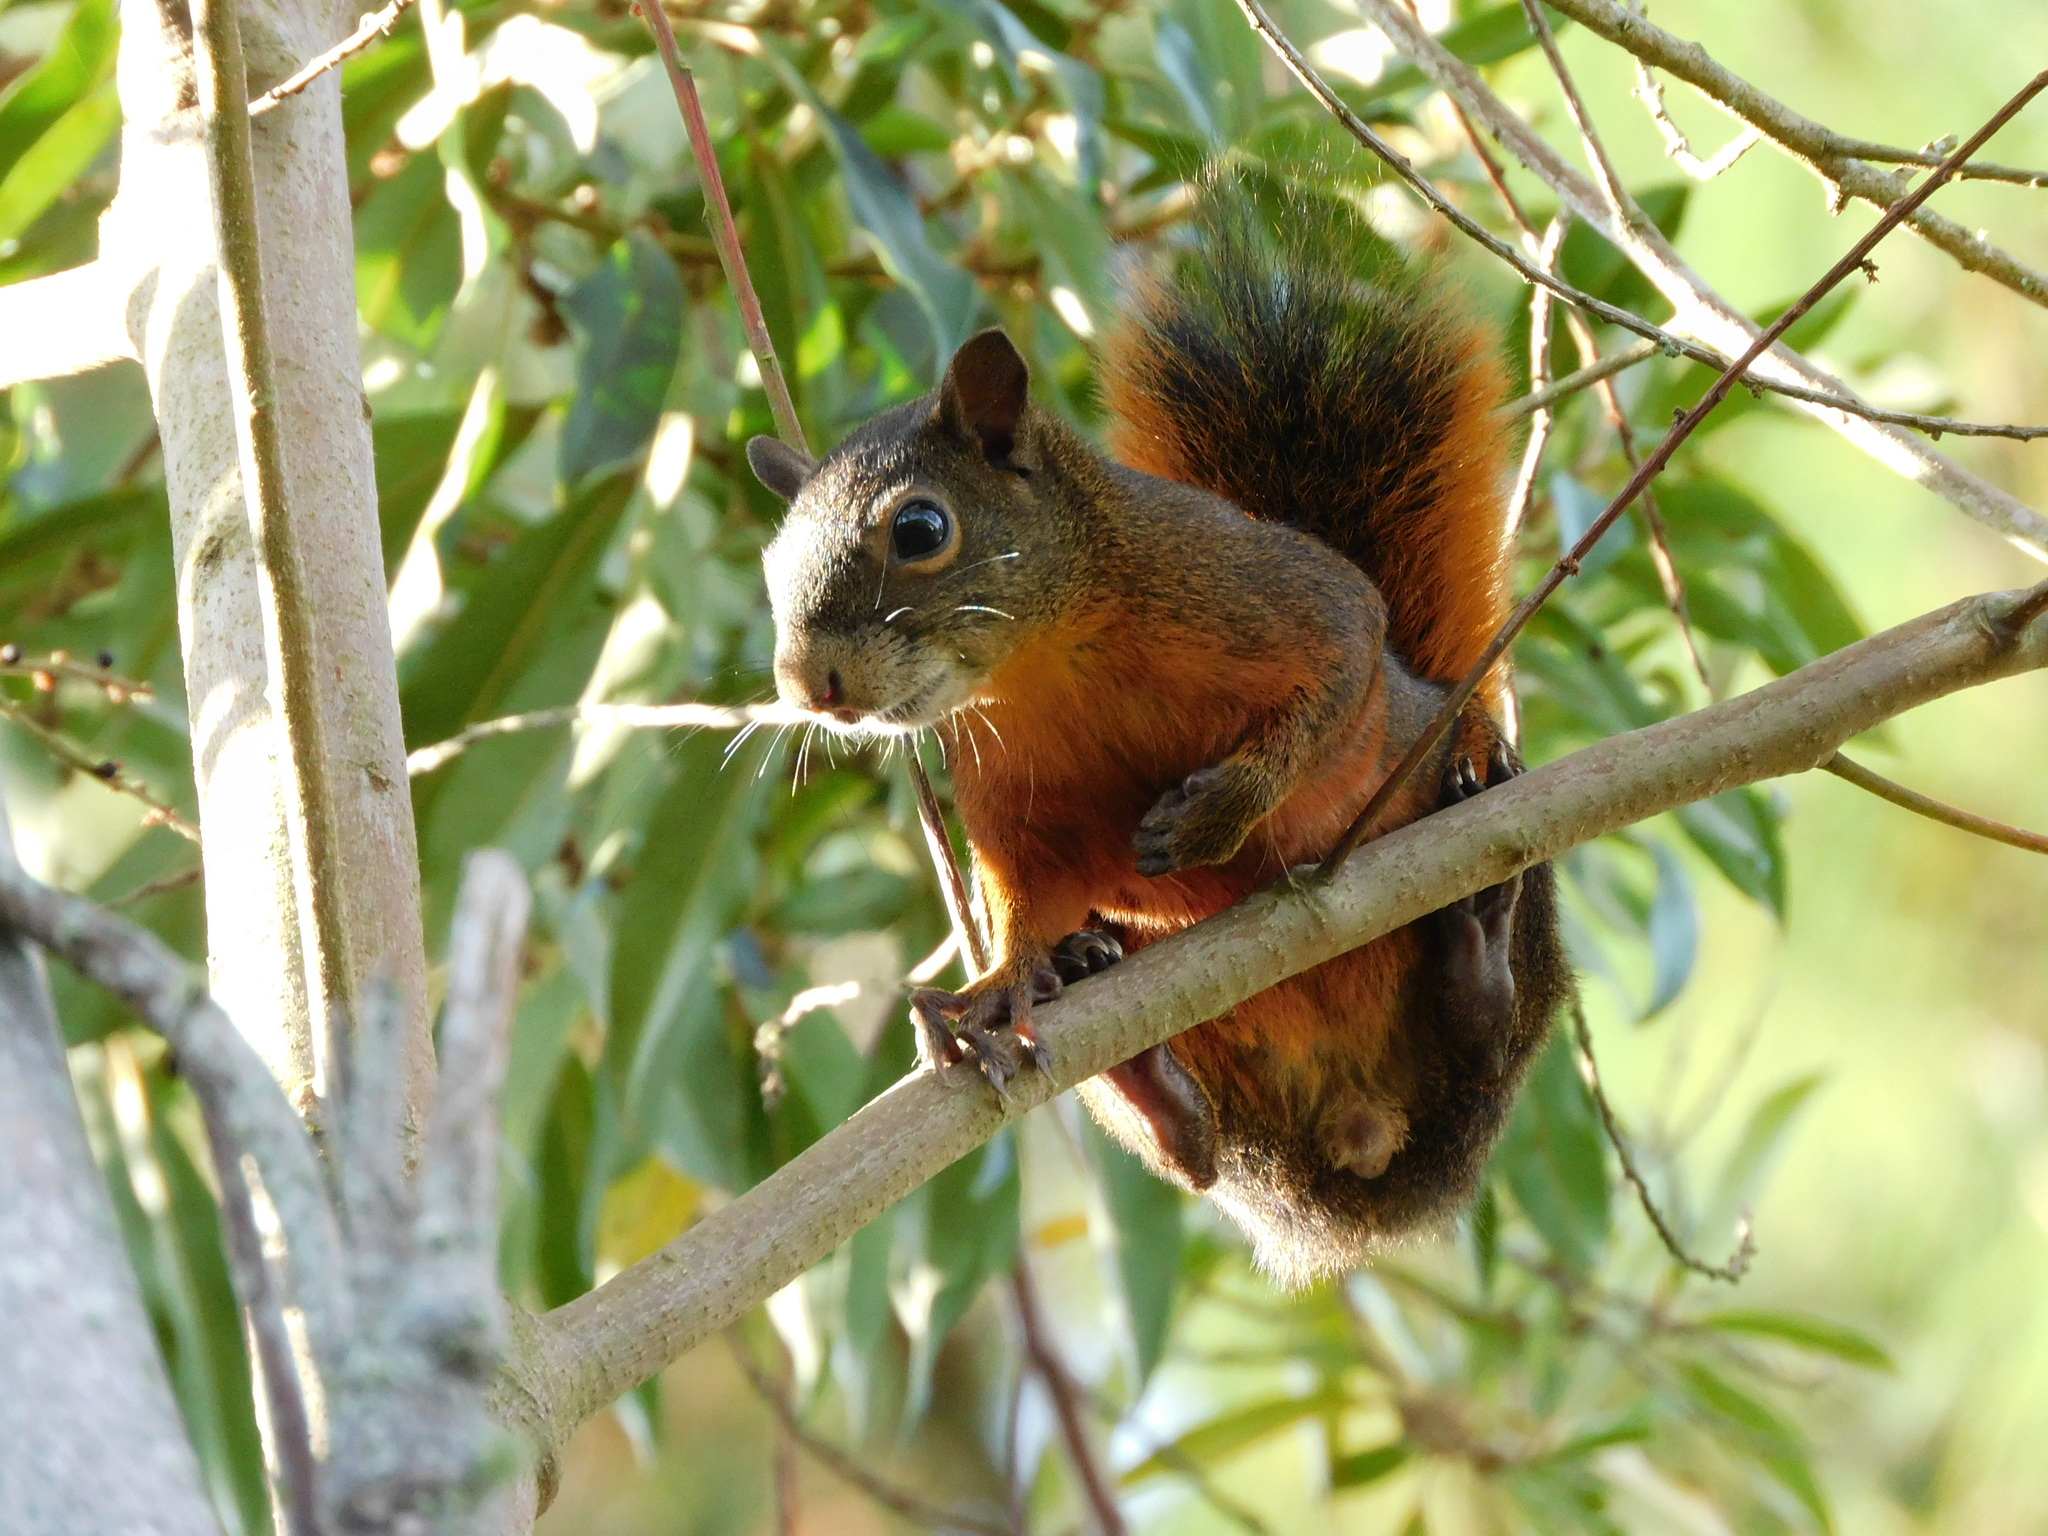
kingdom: Animalia
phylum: Chordata
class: Mammalia
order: Rodentia
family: Sciuridae
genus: Sciurus
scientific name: Sciurus granatensis
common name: Red-tailed squirrel
